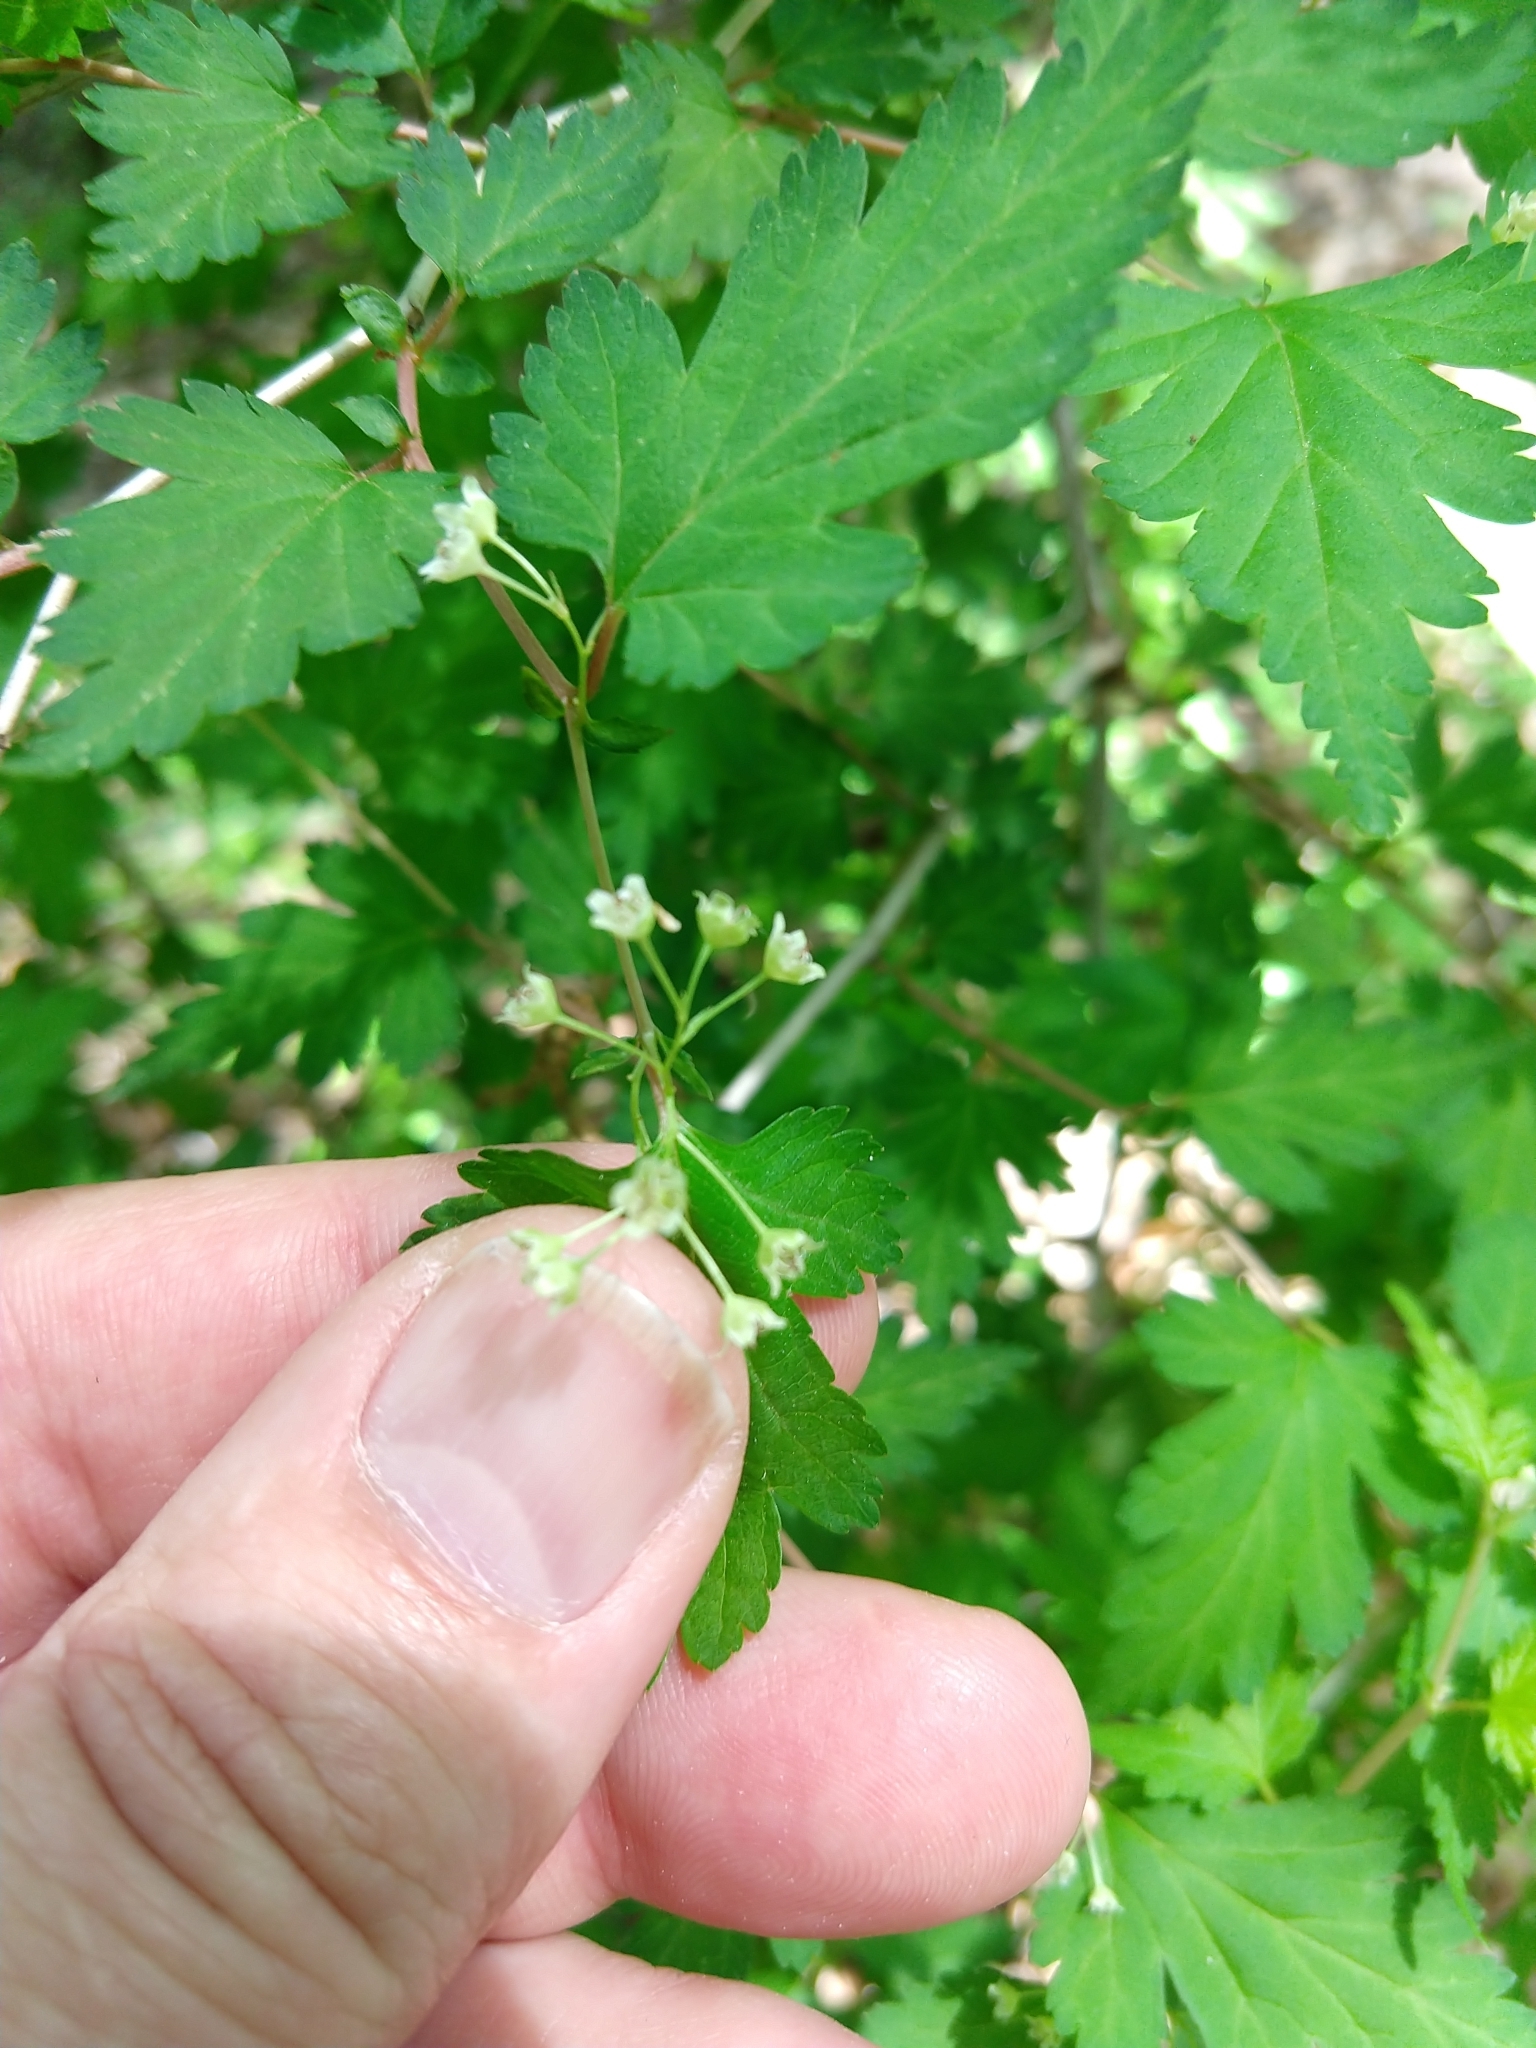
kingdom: Plantae
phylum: Tracheophyta
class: Magnoliopsida
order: Rosales
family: Rosaceae
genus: Neillia
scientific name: Neillia incisa
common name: Laceshrub
